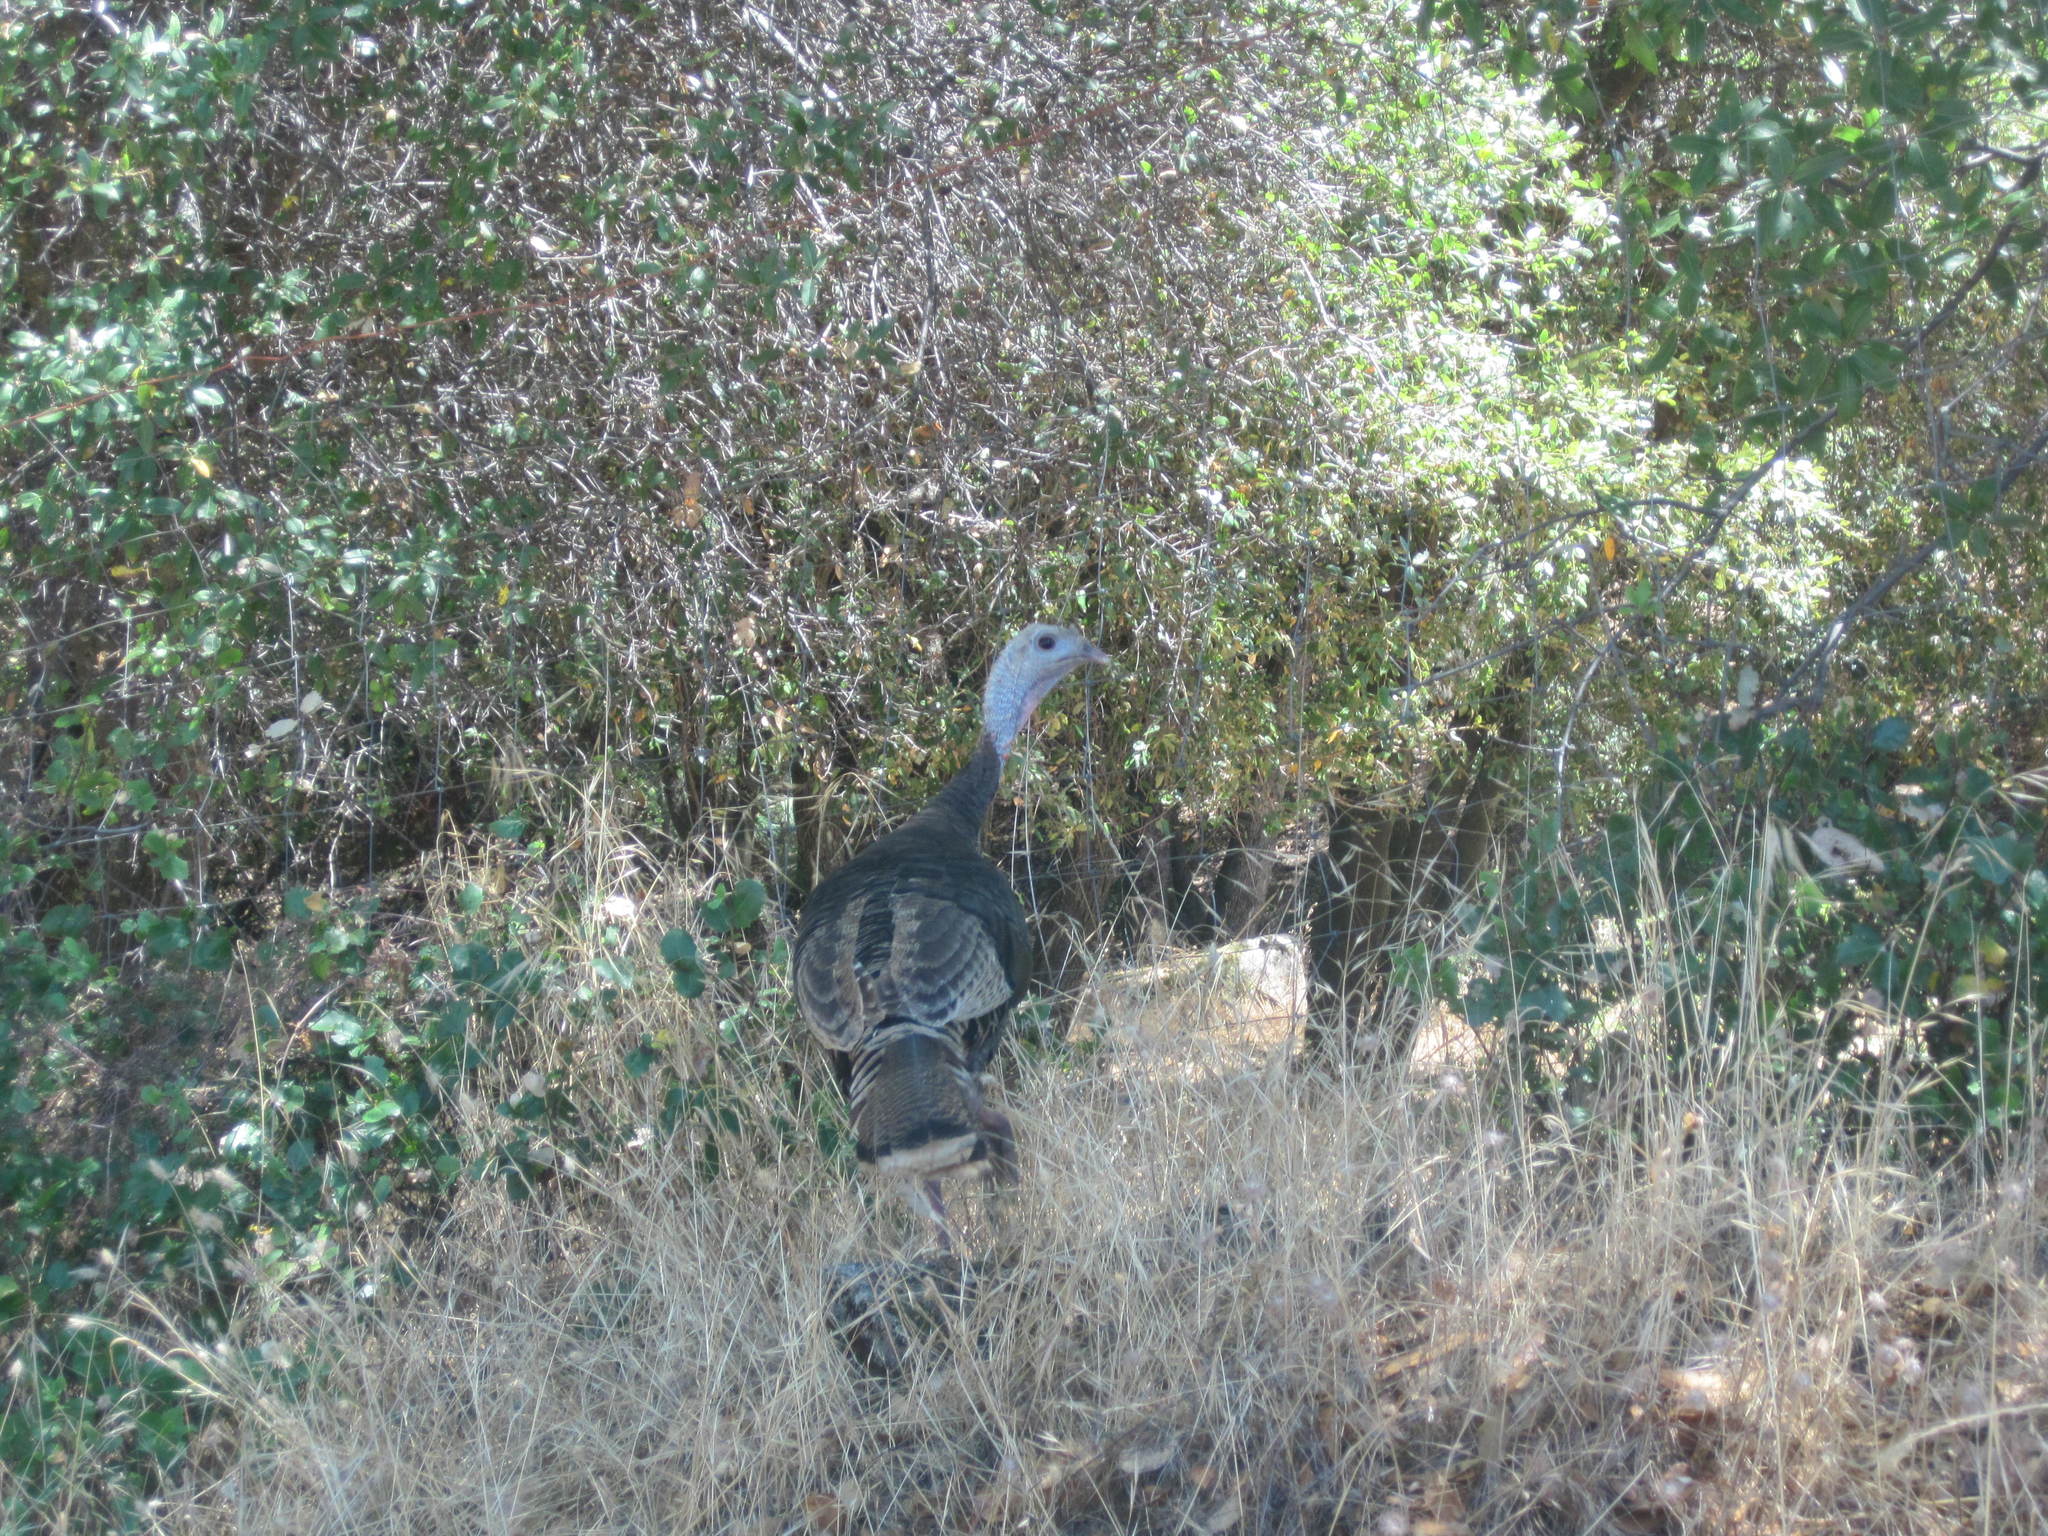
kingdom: Animalia
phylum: Chordata
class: Aves
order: Galliformes
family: Phasianidae
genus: Meleagris
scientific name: Meleagris gallopavo
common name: Wild turkey
